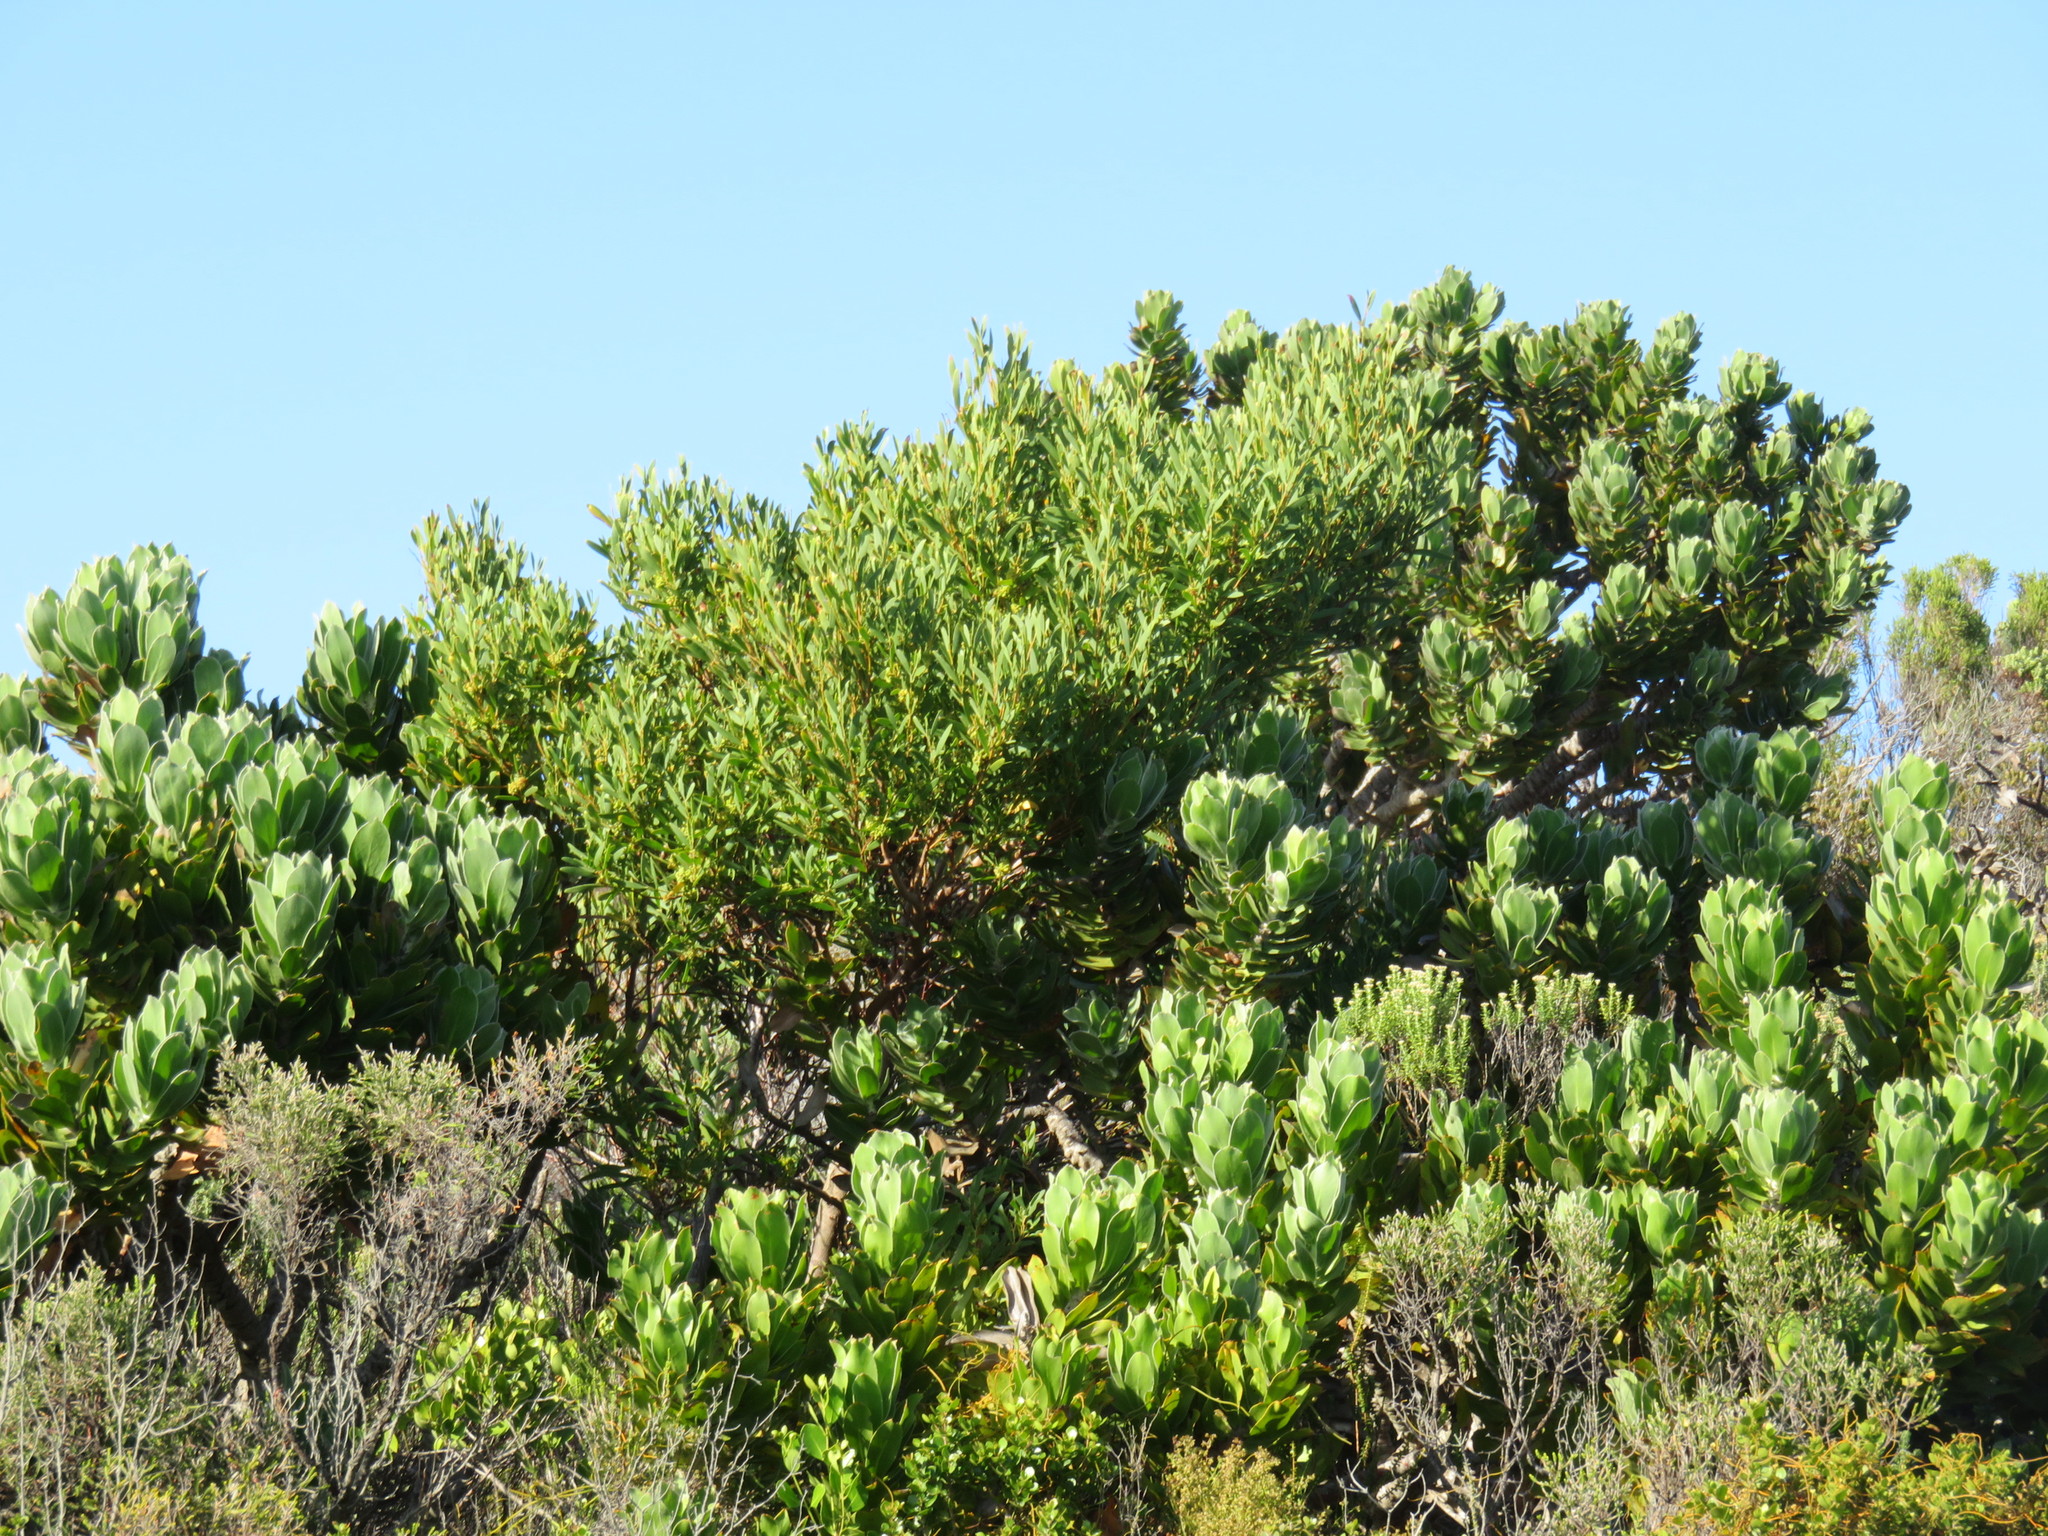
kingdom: Plantae
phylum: Tracheophyta
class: Magnoliopsida
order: Fabales
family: Fabaceae
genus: Acacia
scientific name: Acacia cyclops
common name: Coastal wattle
